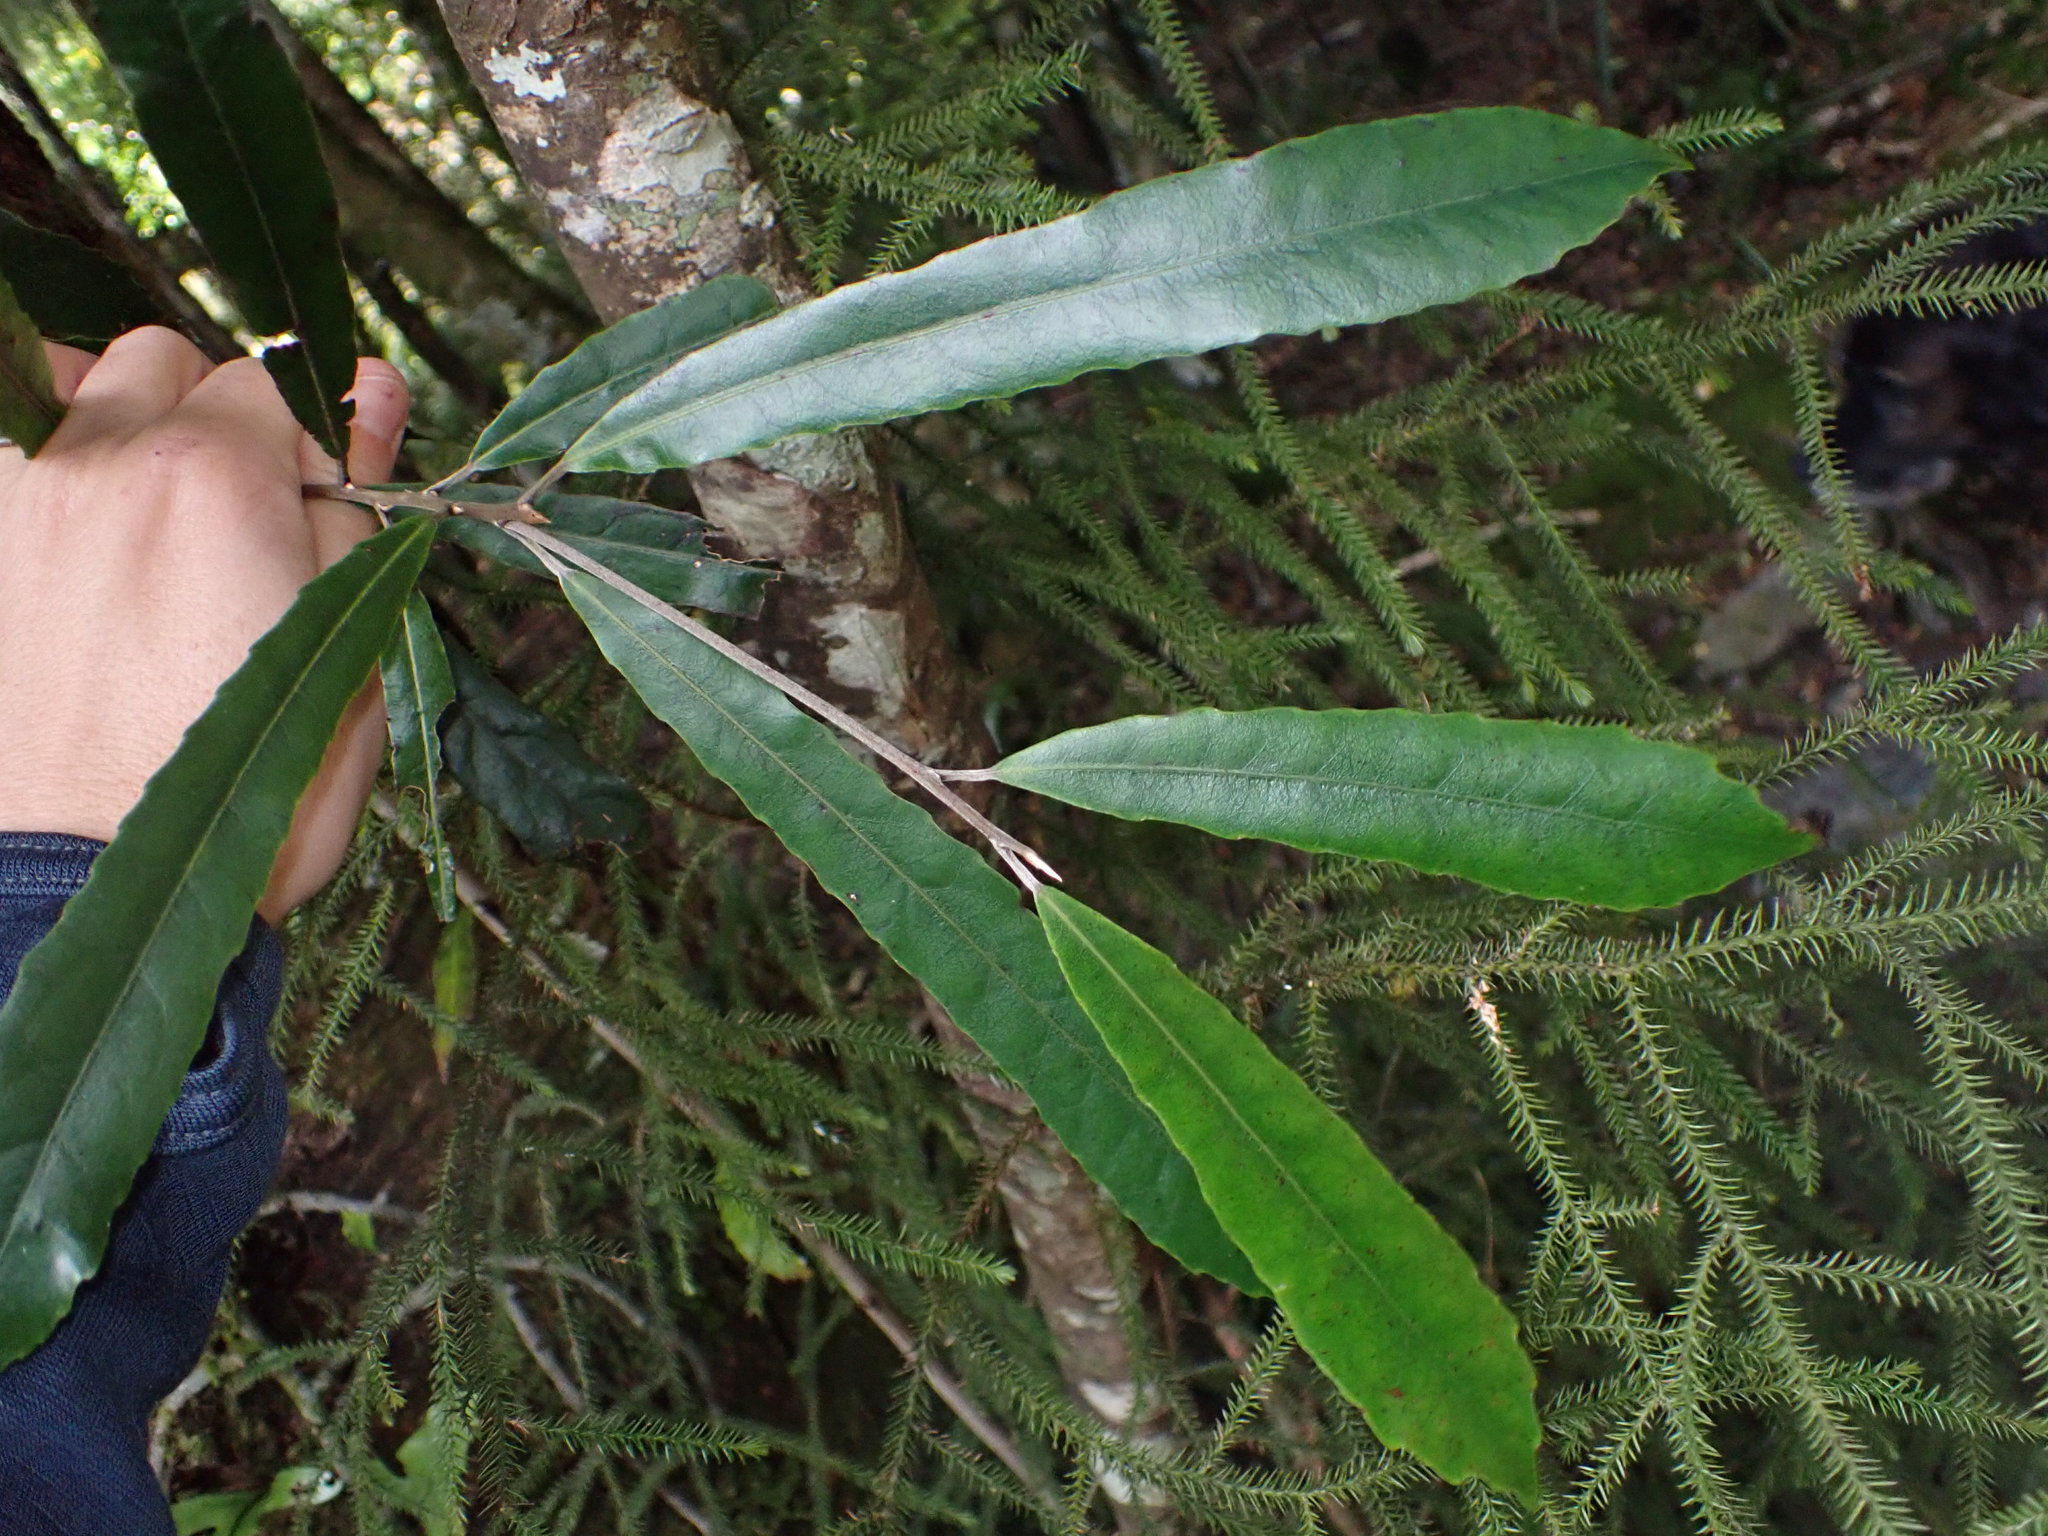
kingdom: Plantae
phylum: Tracheophyta
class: Magnoliopsida
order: Oxalidales
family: Elaeocarpaceae
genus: Elaeocarpus
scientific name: Elaeocarpus dentatus
